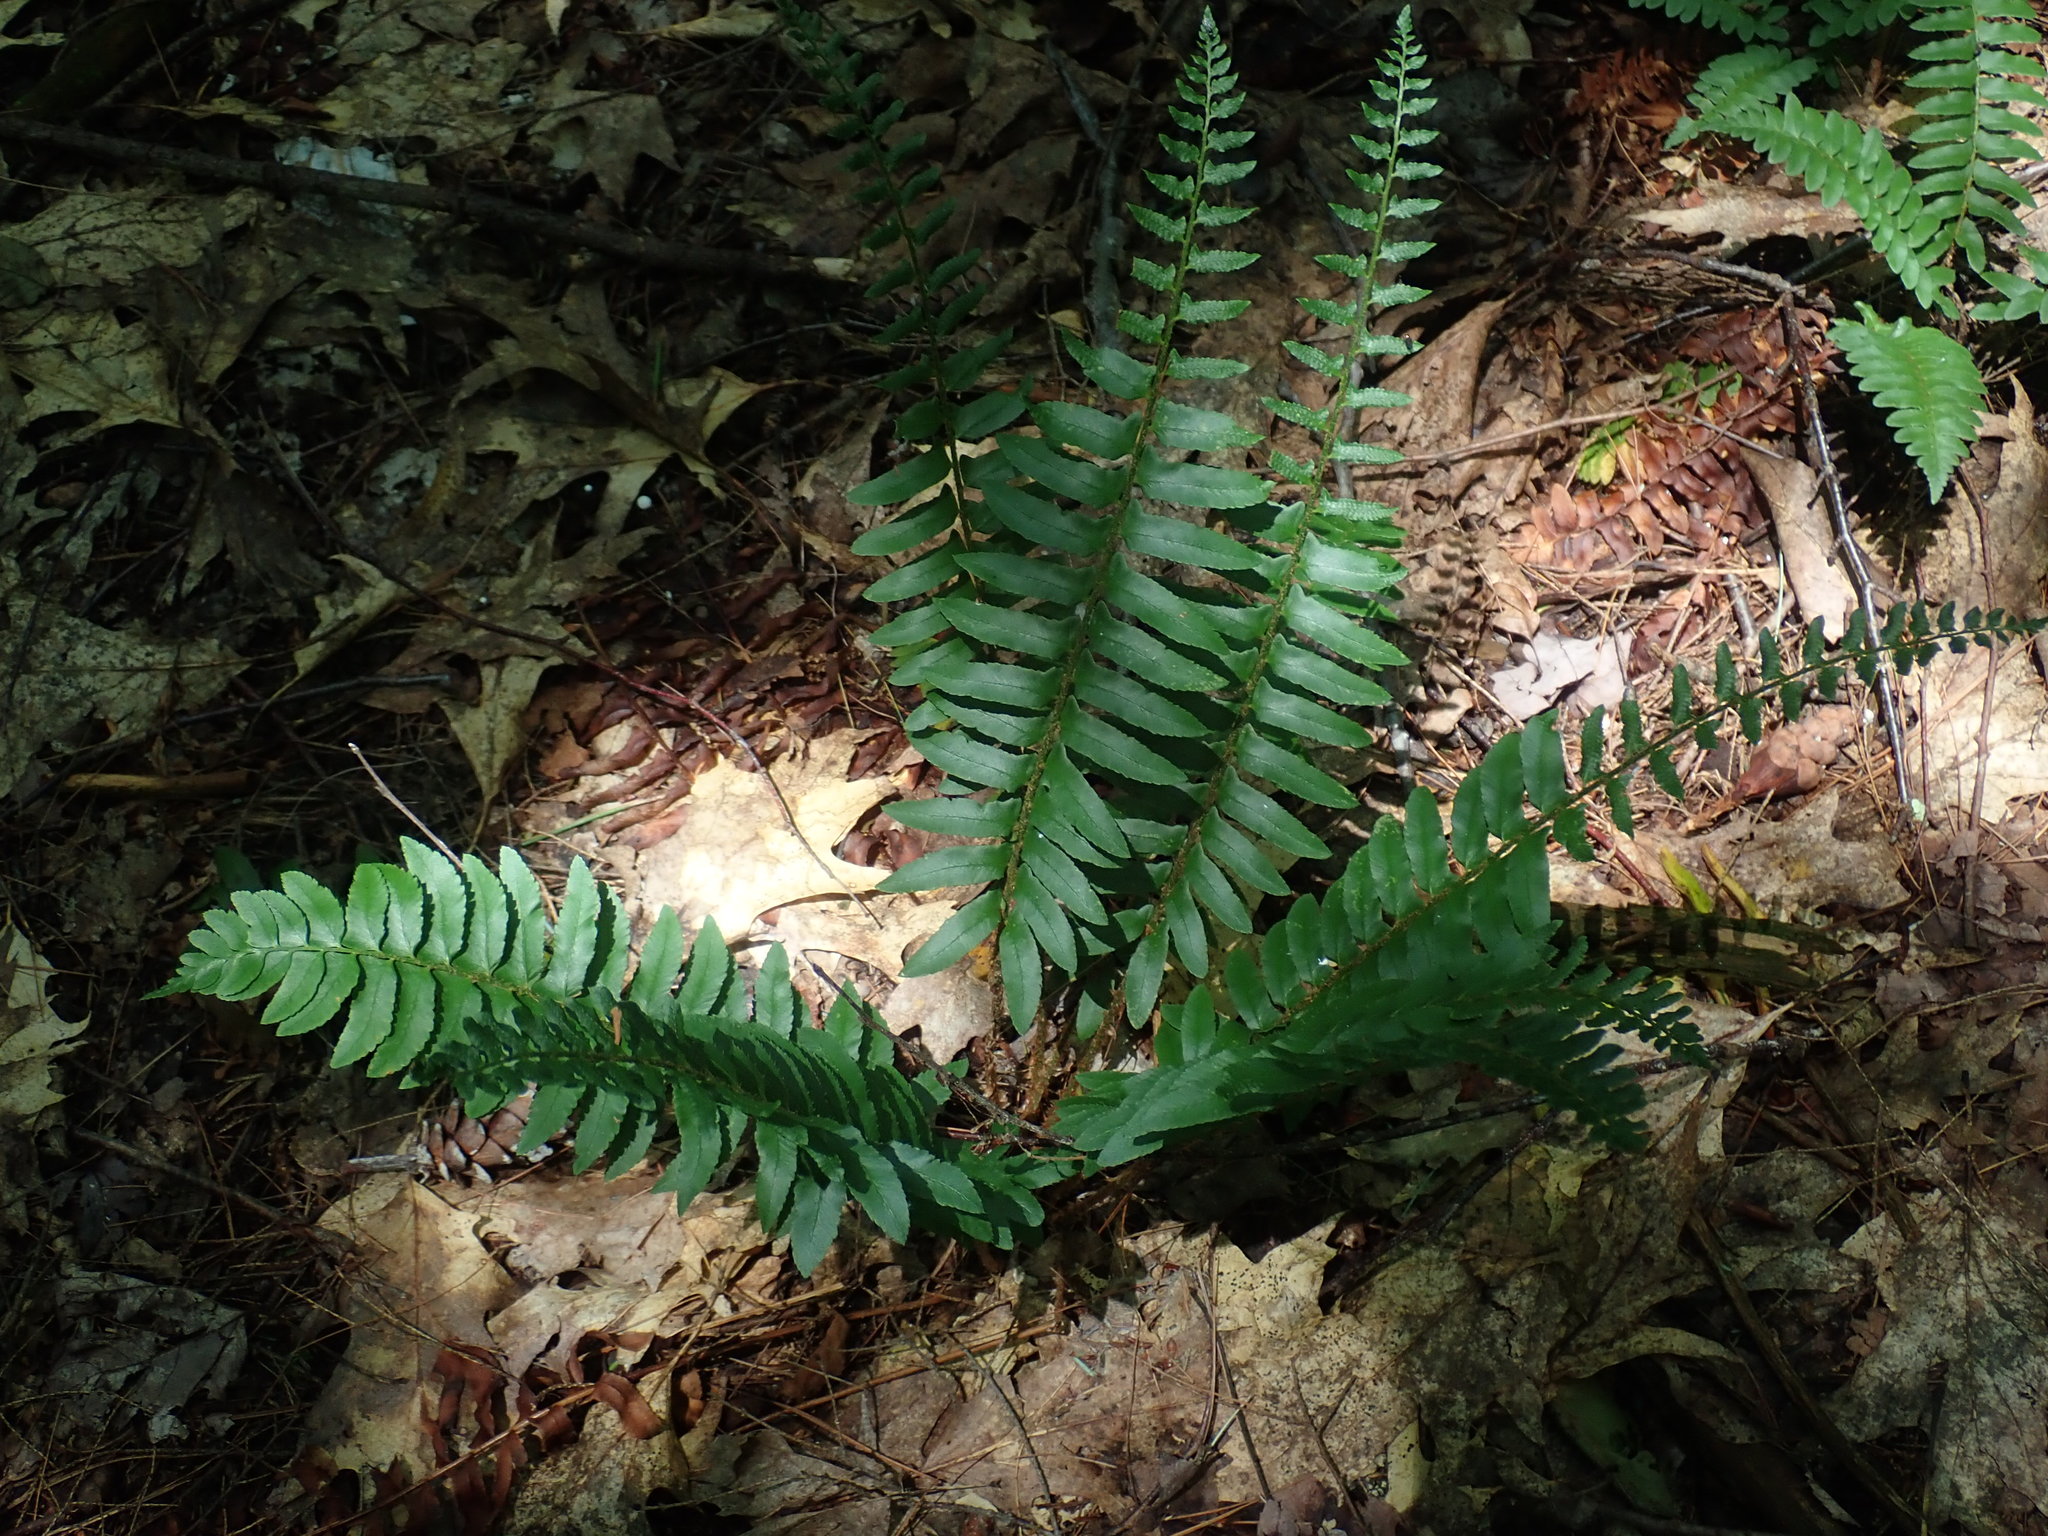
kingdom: Plantae
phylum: Tracheophyta
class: Polypodiopsida
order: Polypodiales
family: Dryopteridaceae
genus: Polystichum
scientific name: Polystichum acrostichoides
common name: Christmas fern
